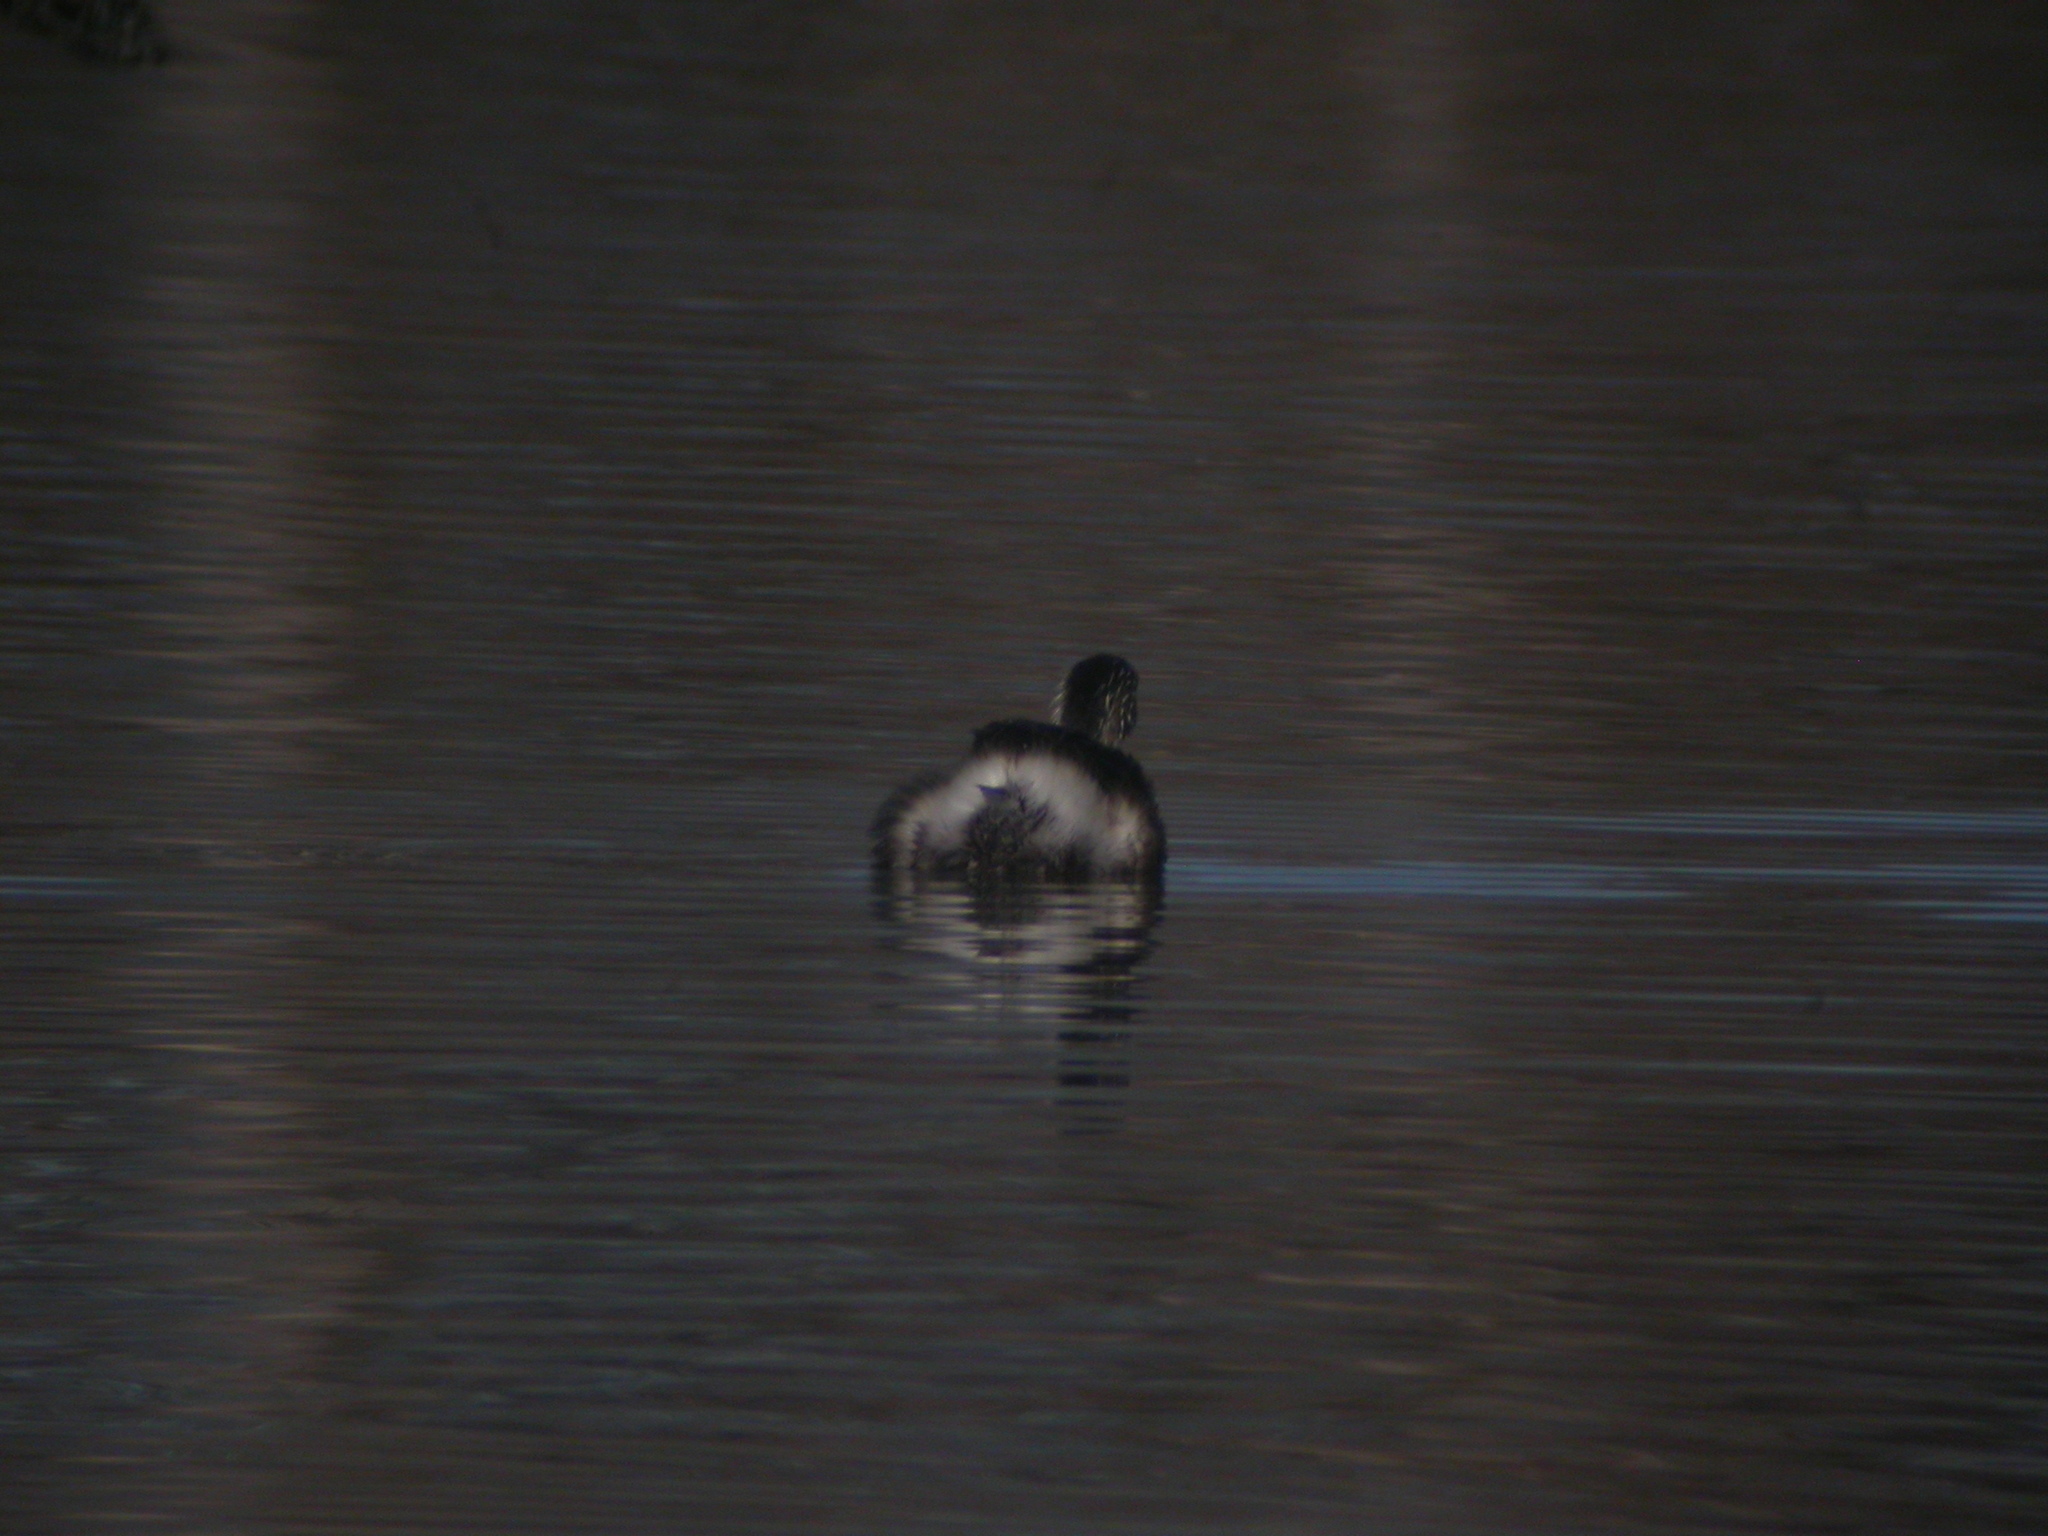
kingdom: Animalia
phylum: Chordata
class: Aves
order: Podicipediformes
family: Podicipedidae
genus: Poliocephalus
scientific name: Poliocephalus poliocephalus
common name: Hoary-headed grebe
